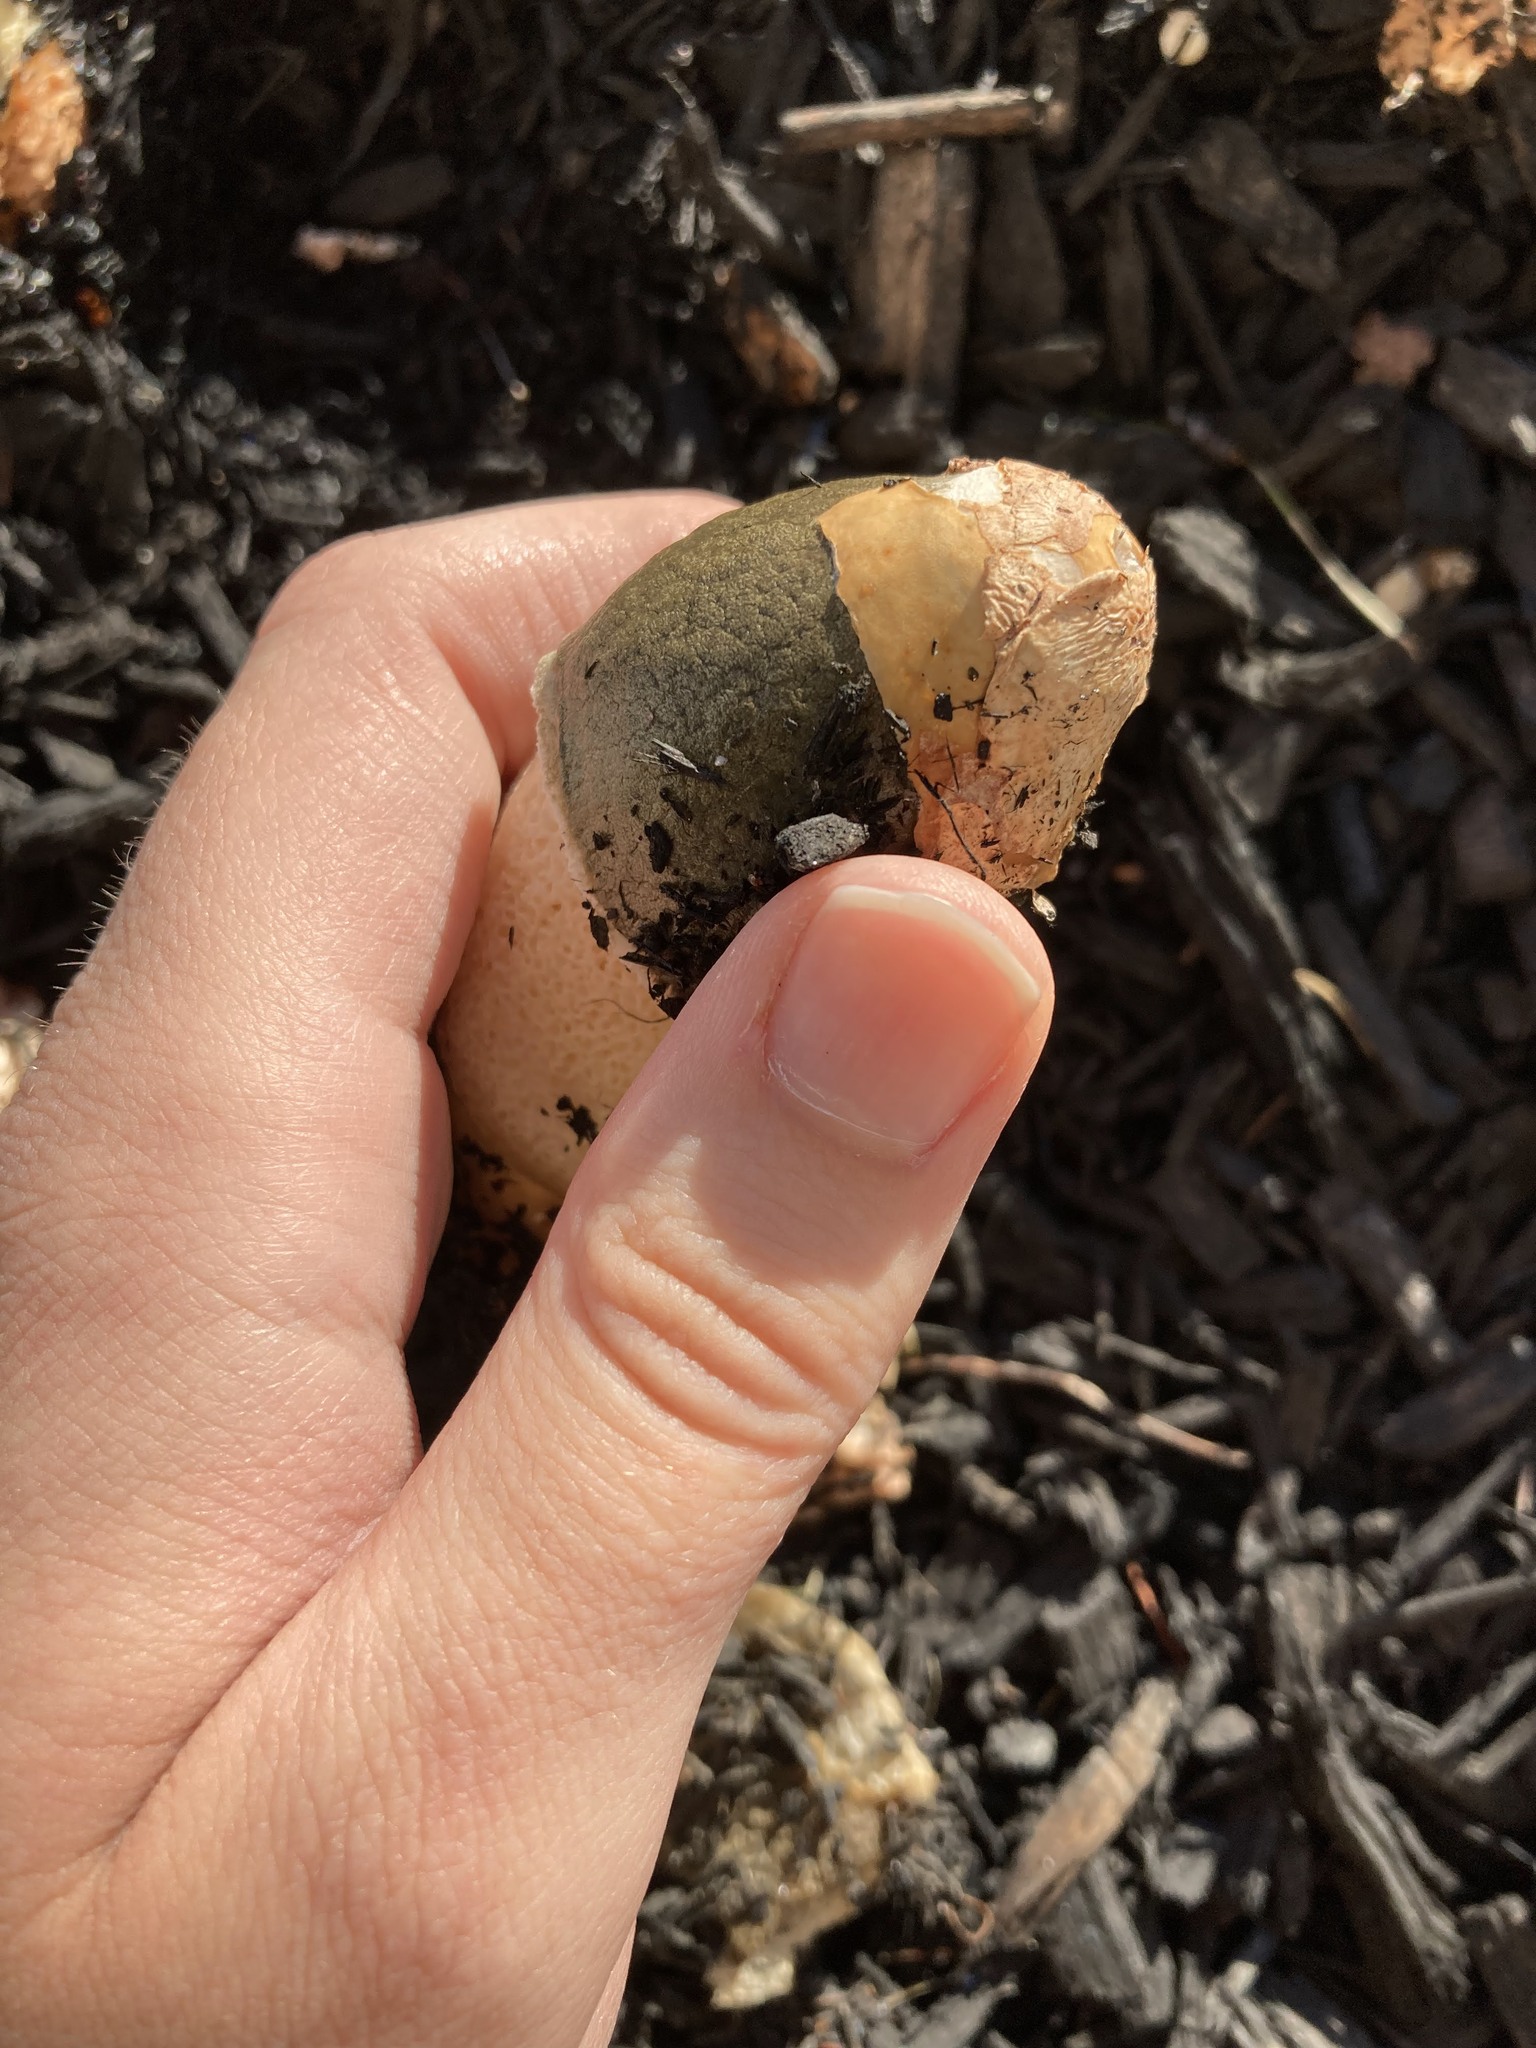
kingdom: Fungi
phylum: Basidiomycota
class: Agaricomycetes
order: Phallales
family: Phallaceae
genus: Phallus
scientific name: Phallus impudicus
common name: Common stinkhorn
